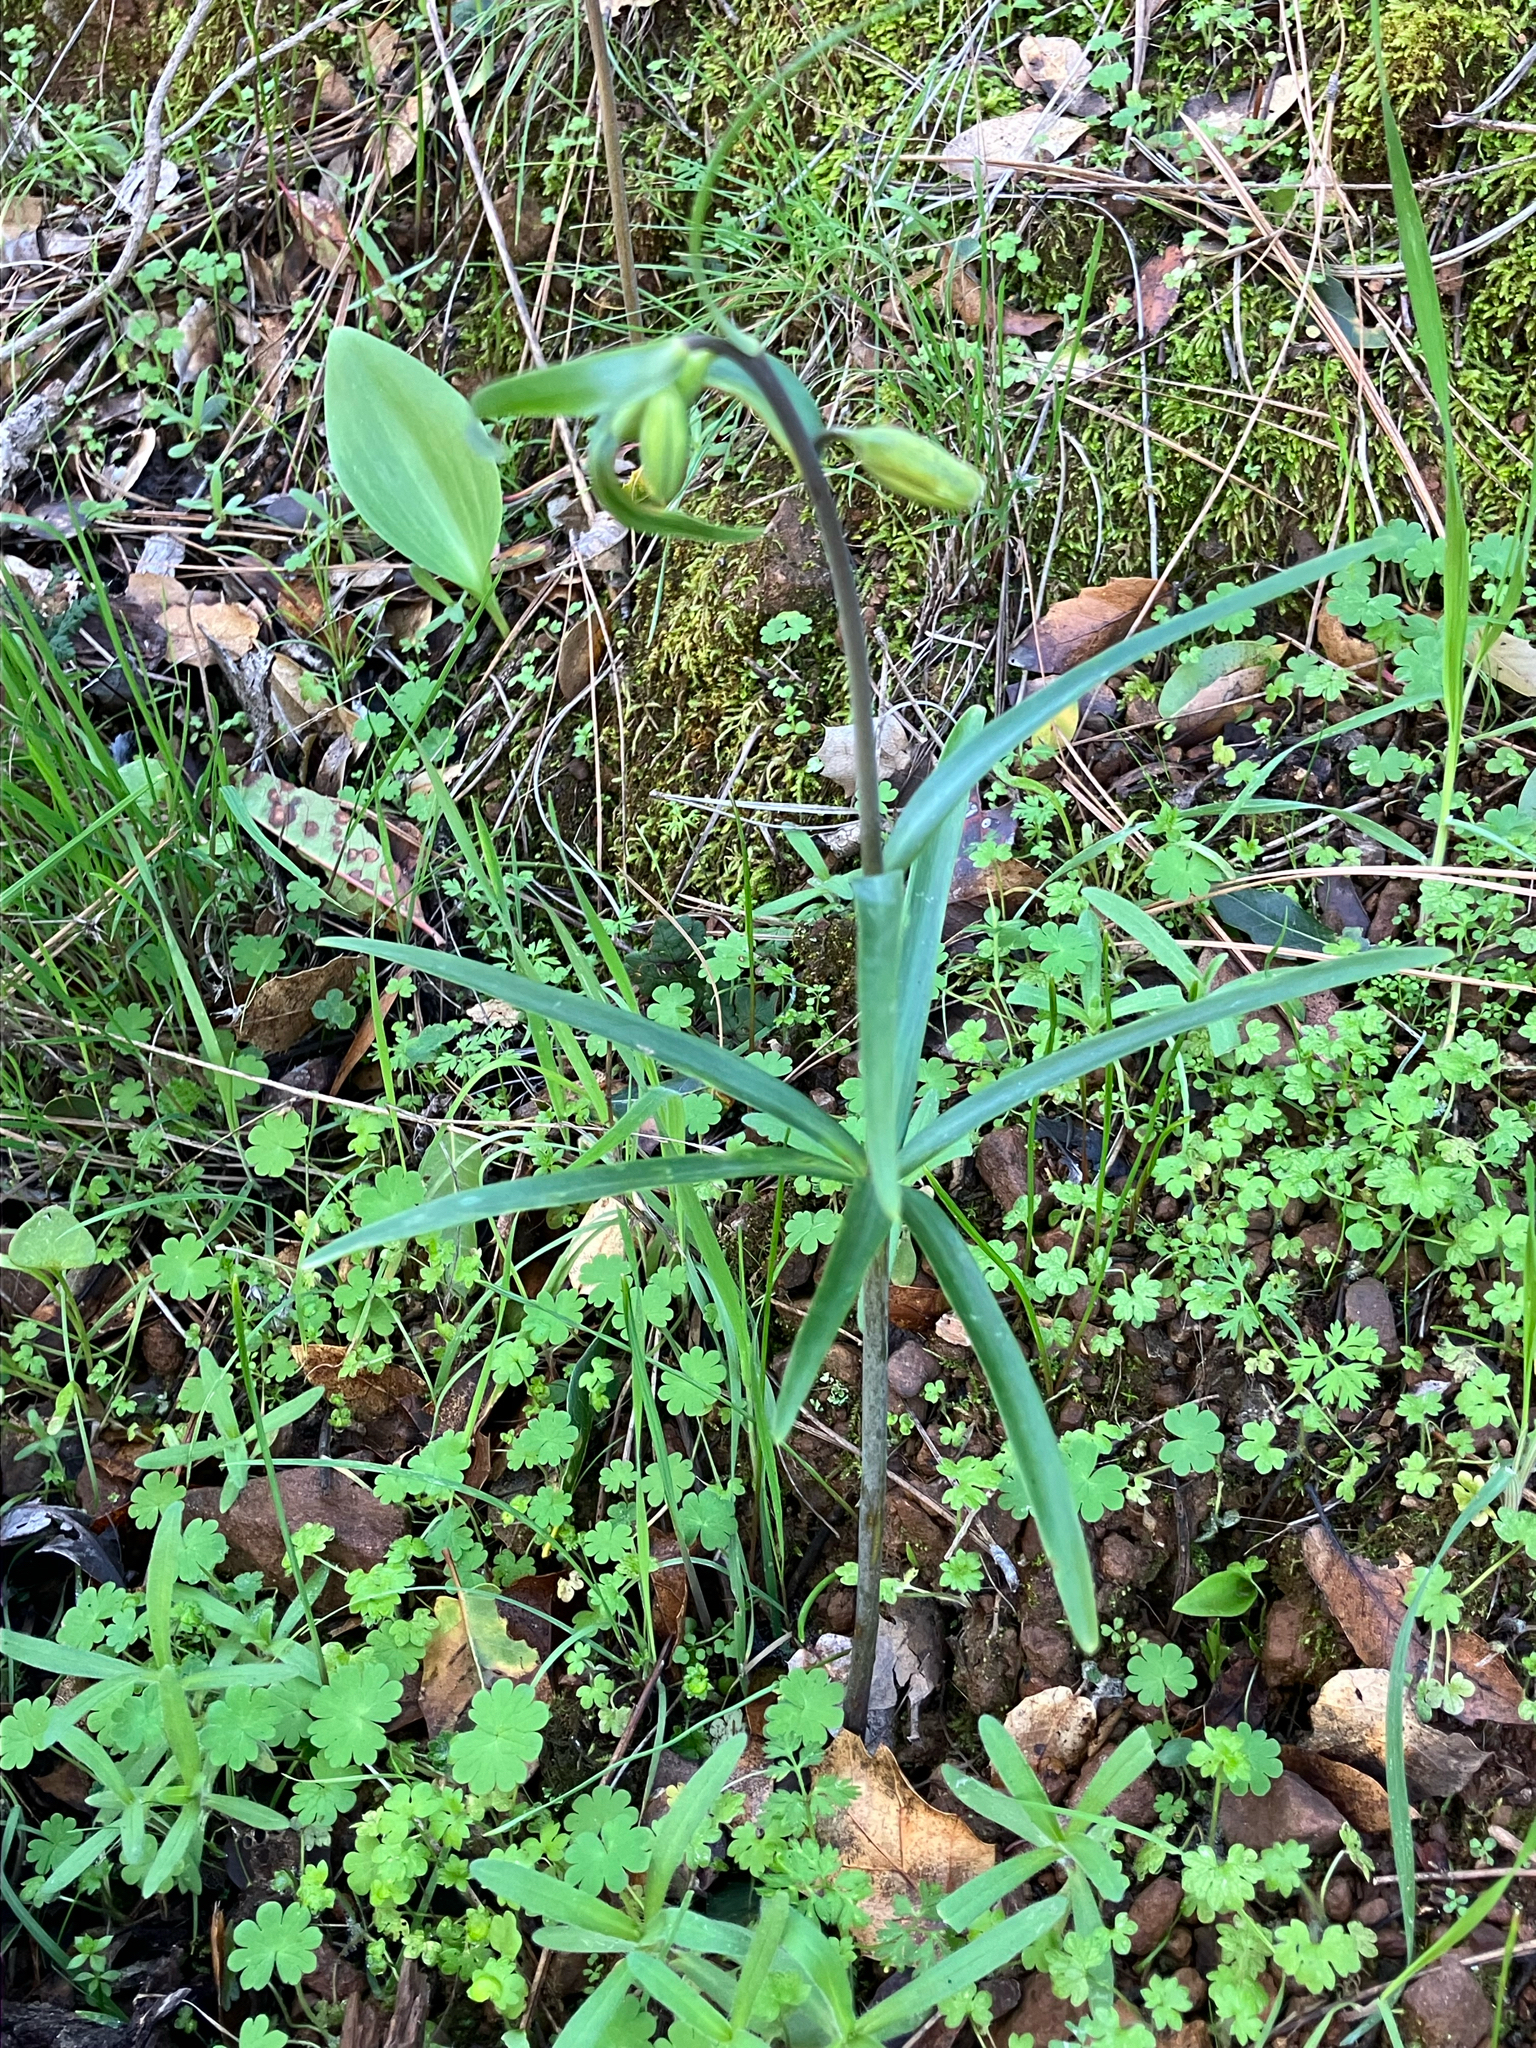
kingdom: Plantae
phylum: Tracheophyta
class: Liliopsida
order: Liliales
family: Liliaceae
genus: Fritillaria
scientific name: Fritillaria affinis
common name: Ojai fritillary
